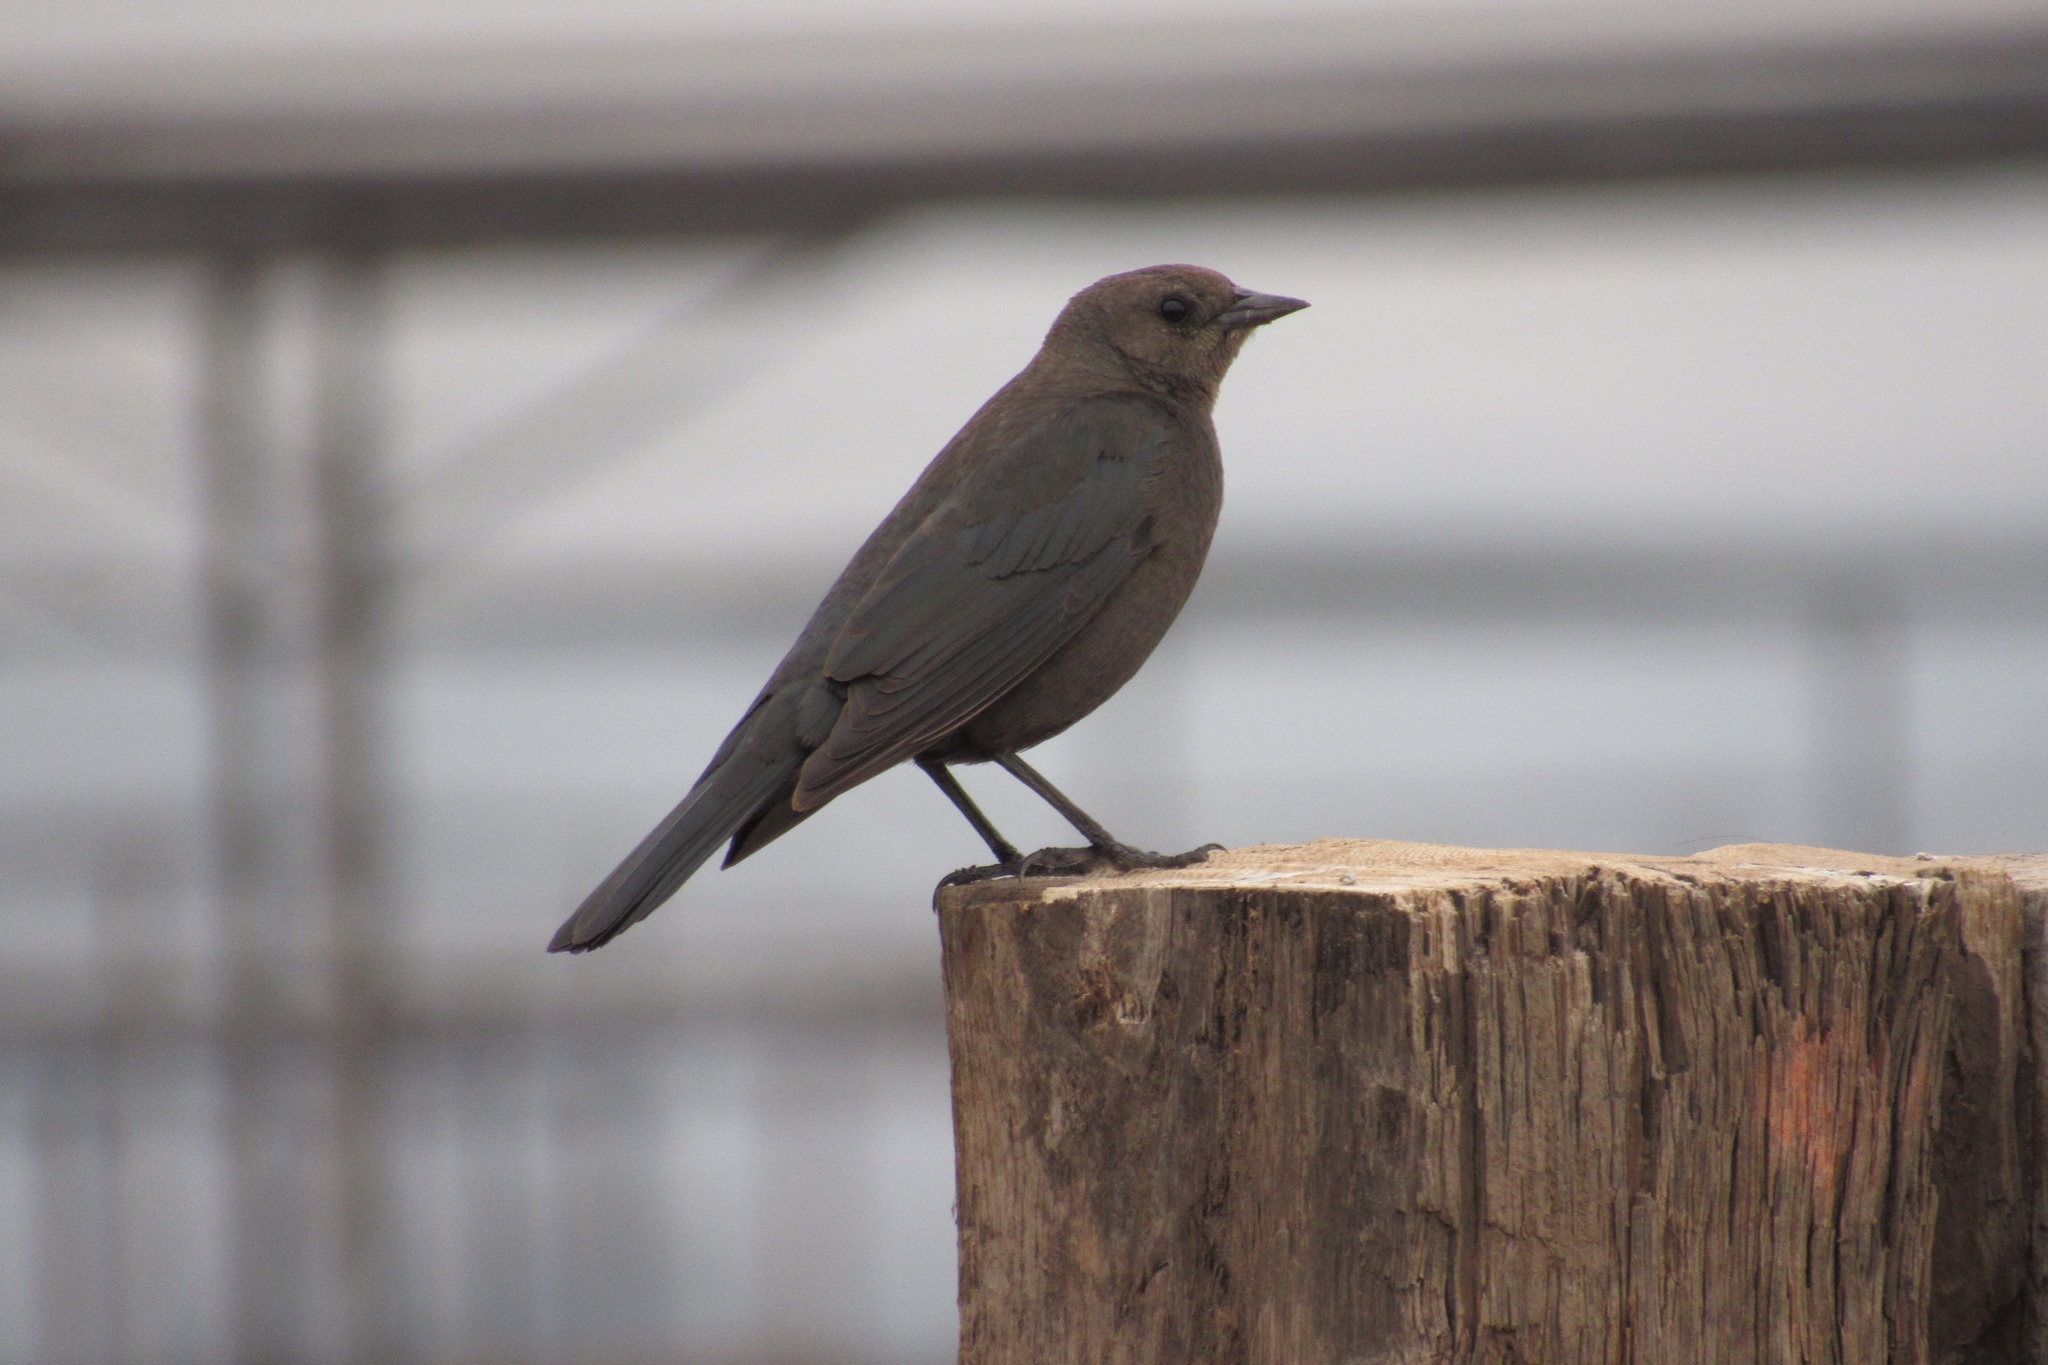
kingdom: Animalia
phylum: Chordata
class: Aves
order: Passeriformes
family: Icteridae
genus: Euphagus
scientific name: Euphagus cyanocephalus
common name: Brewer's blackbird
